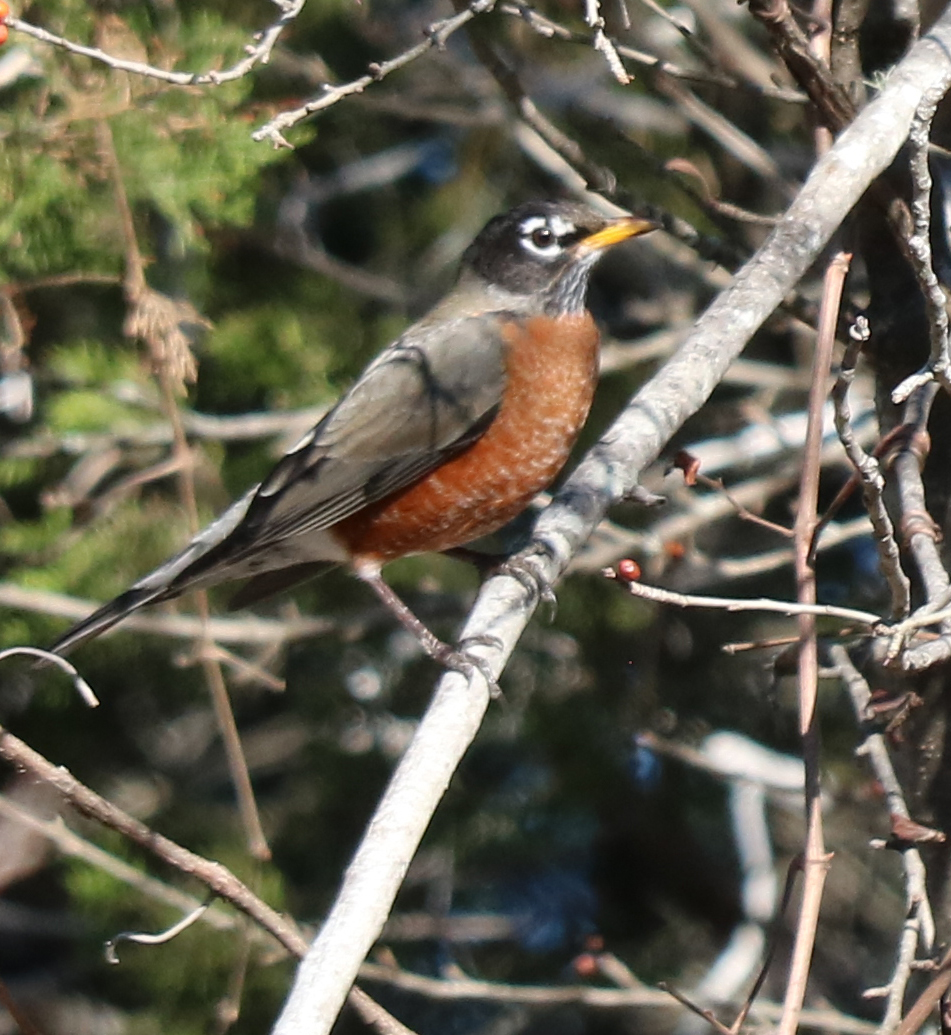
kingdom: Animalia
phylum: Chordata
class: Aves
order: Passeriformes
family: Turdidae
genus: Turdus
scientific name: Turdus migratorius
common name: American robin
